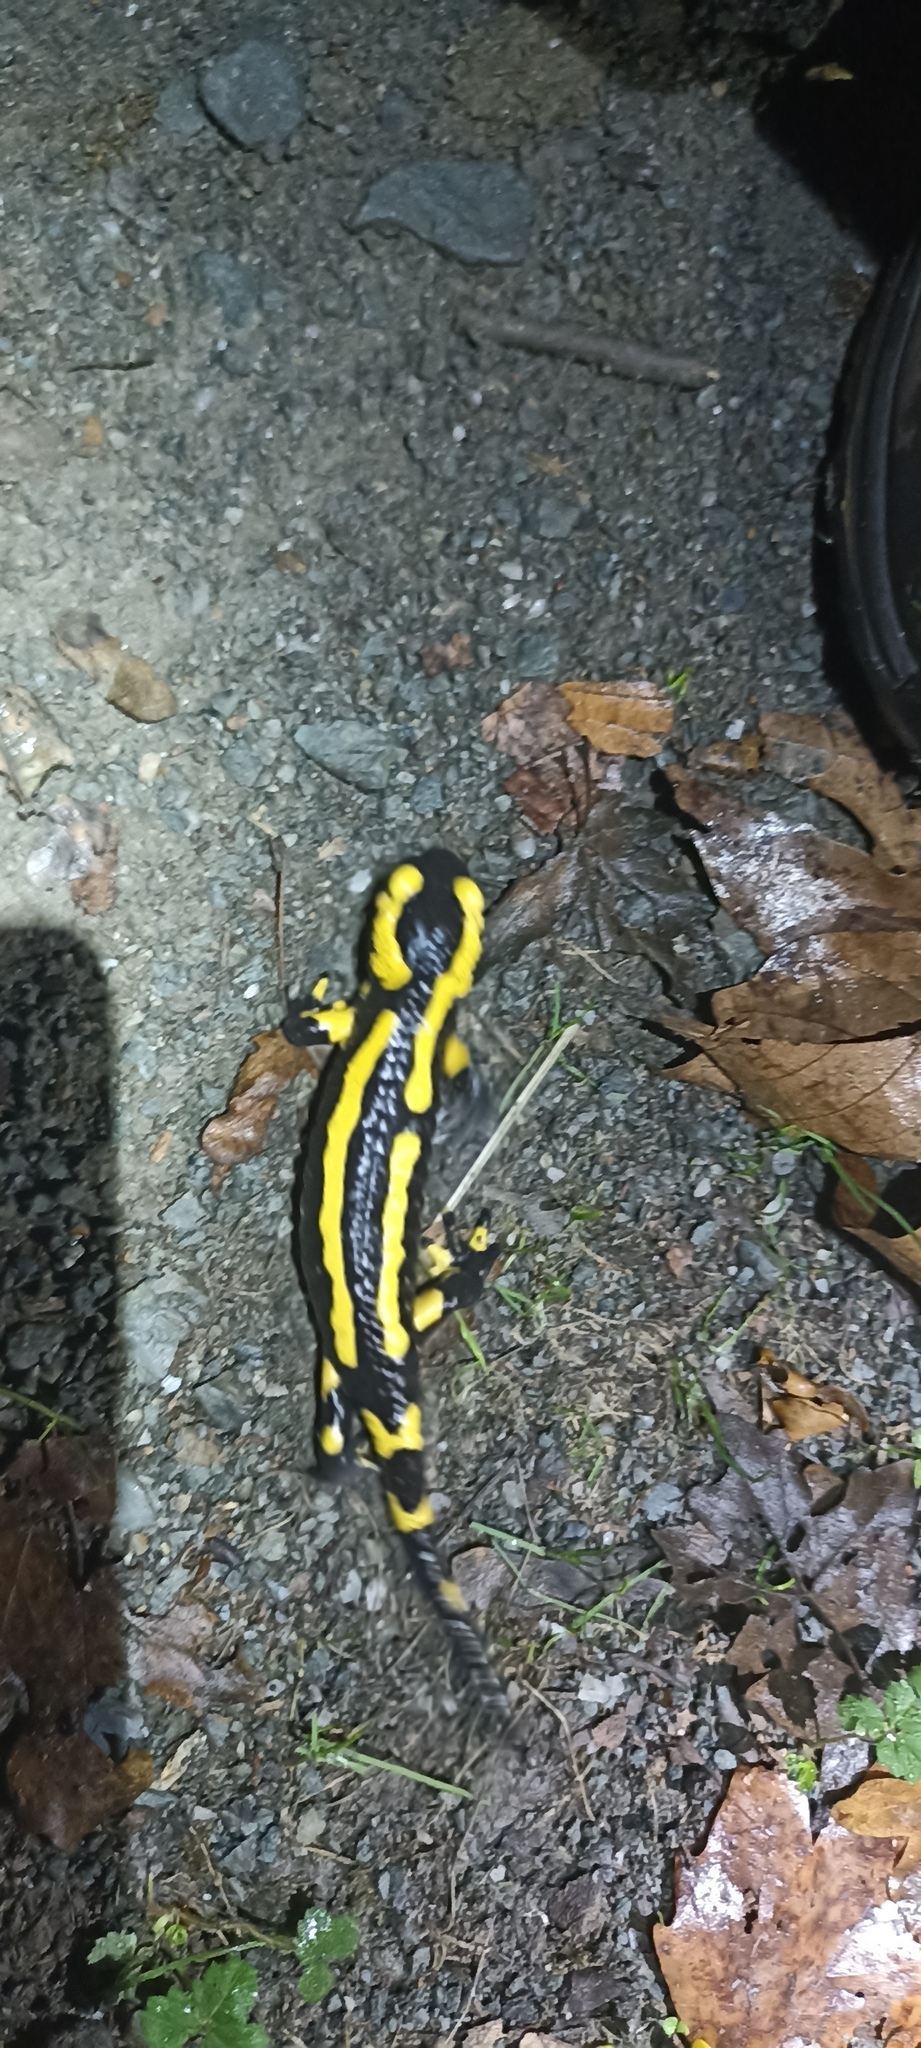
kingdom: Animalia
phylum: Chordata
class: Amphibia
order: Caudata
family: Salamandridae
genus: Salamandra
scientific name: Salamandra salamandra
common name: Fire salamander
